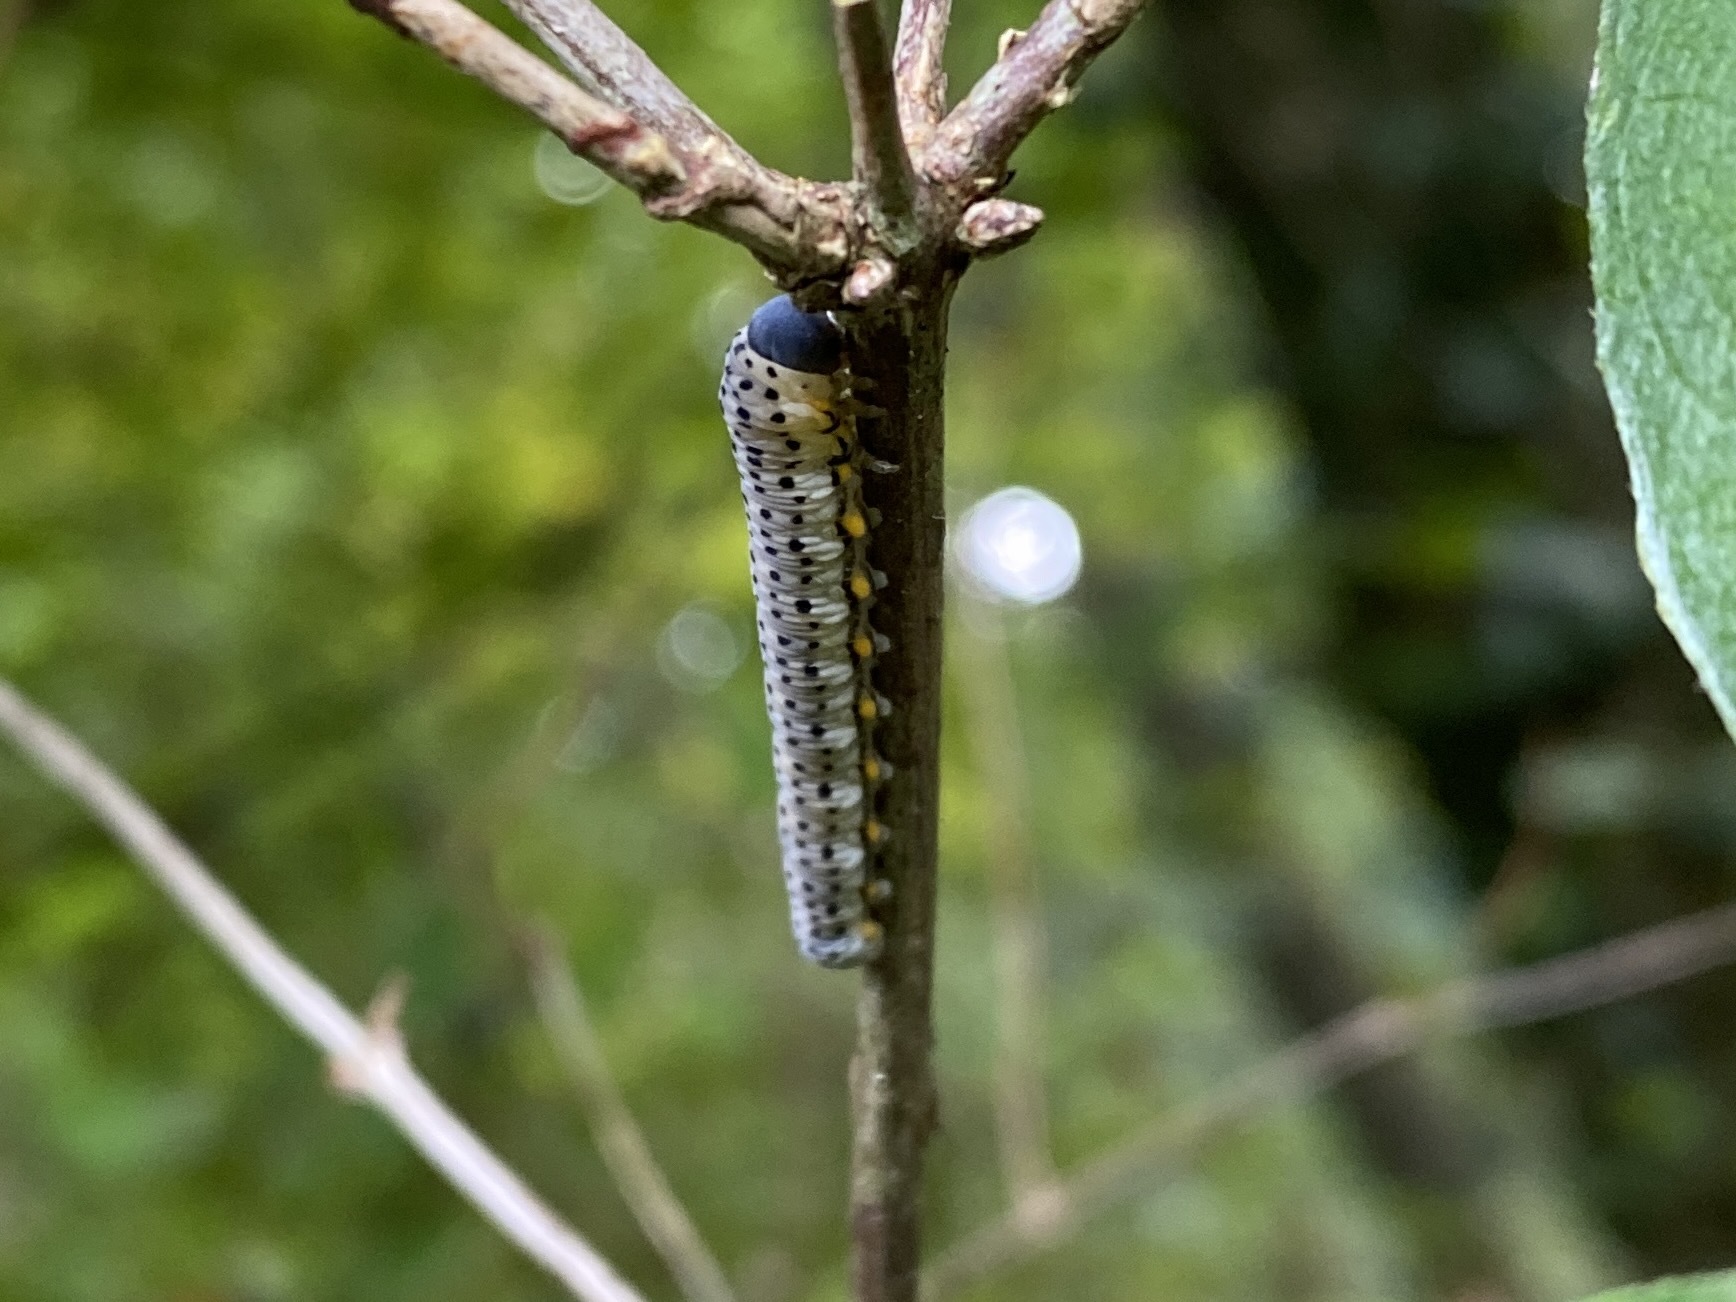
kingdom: Animalia
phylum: Arthropoda
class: Insecta
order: Hymenoptera
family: Cimbicidae
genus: Abia
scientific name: Abia fasciata
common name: Banded honeysuckle sawfly
